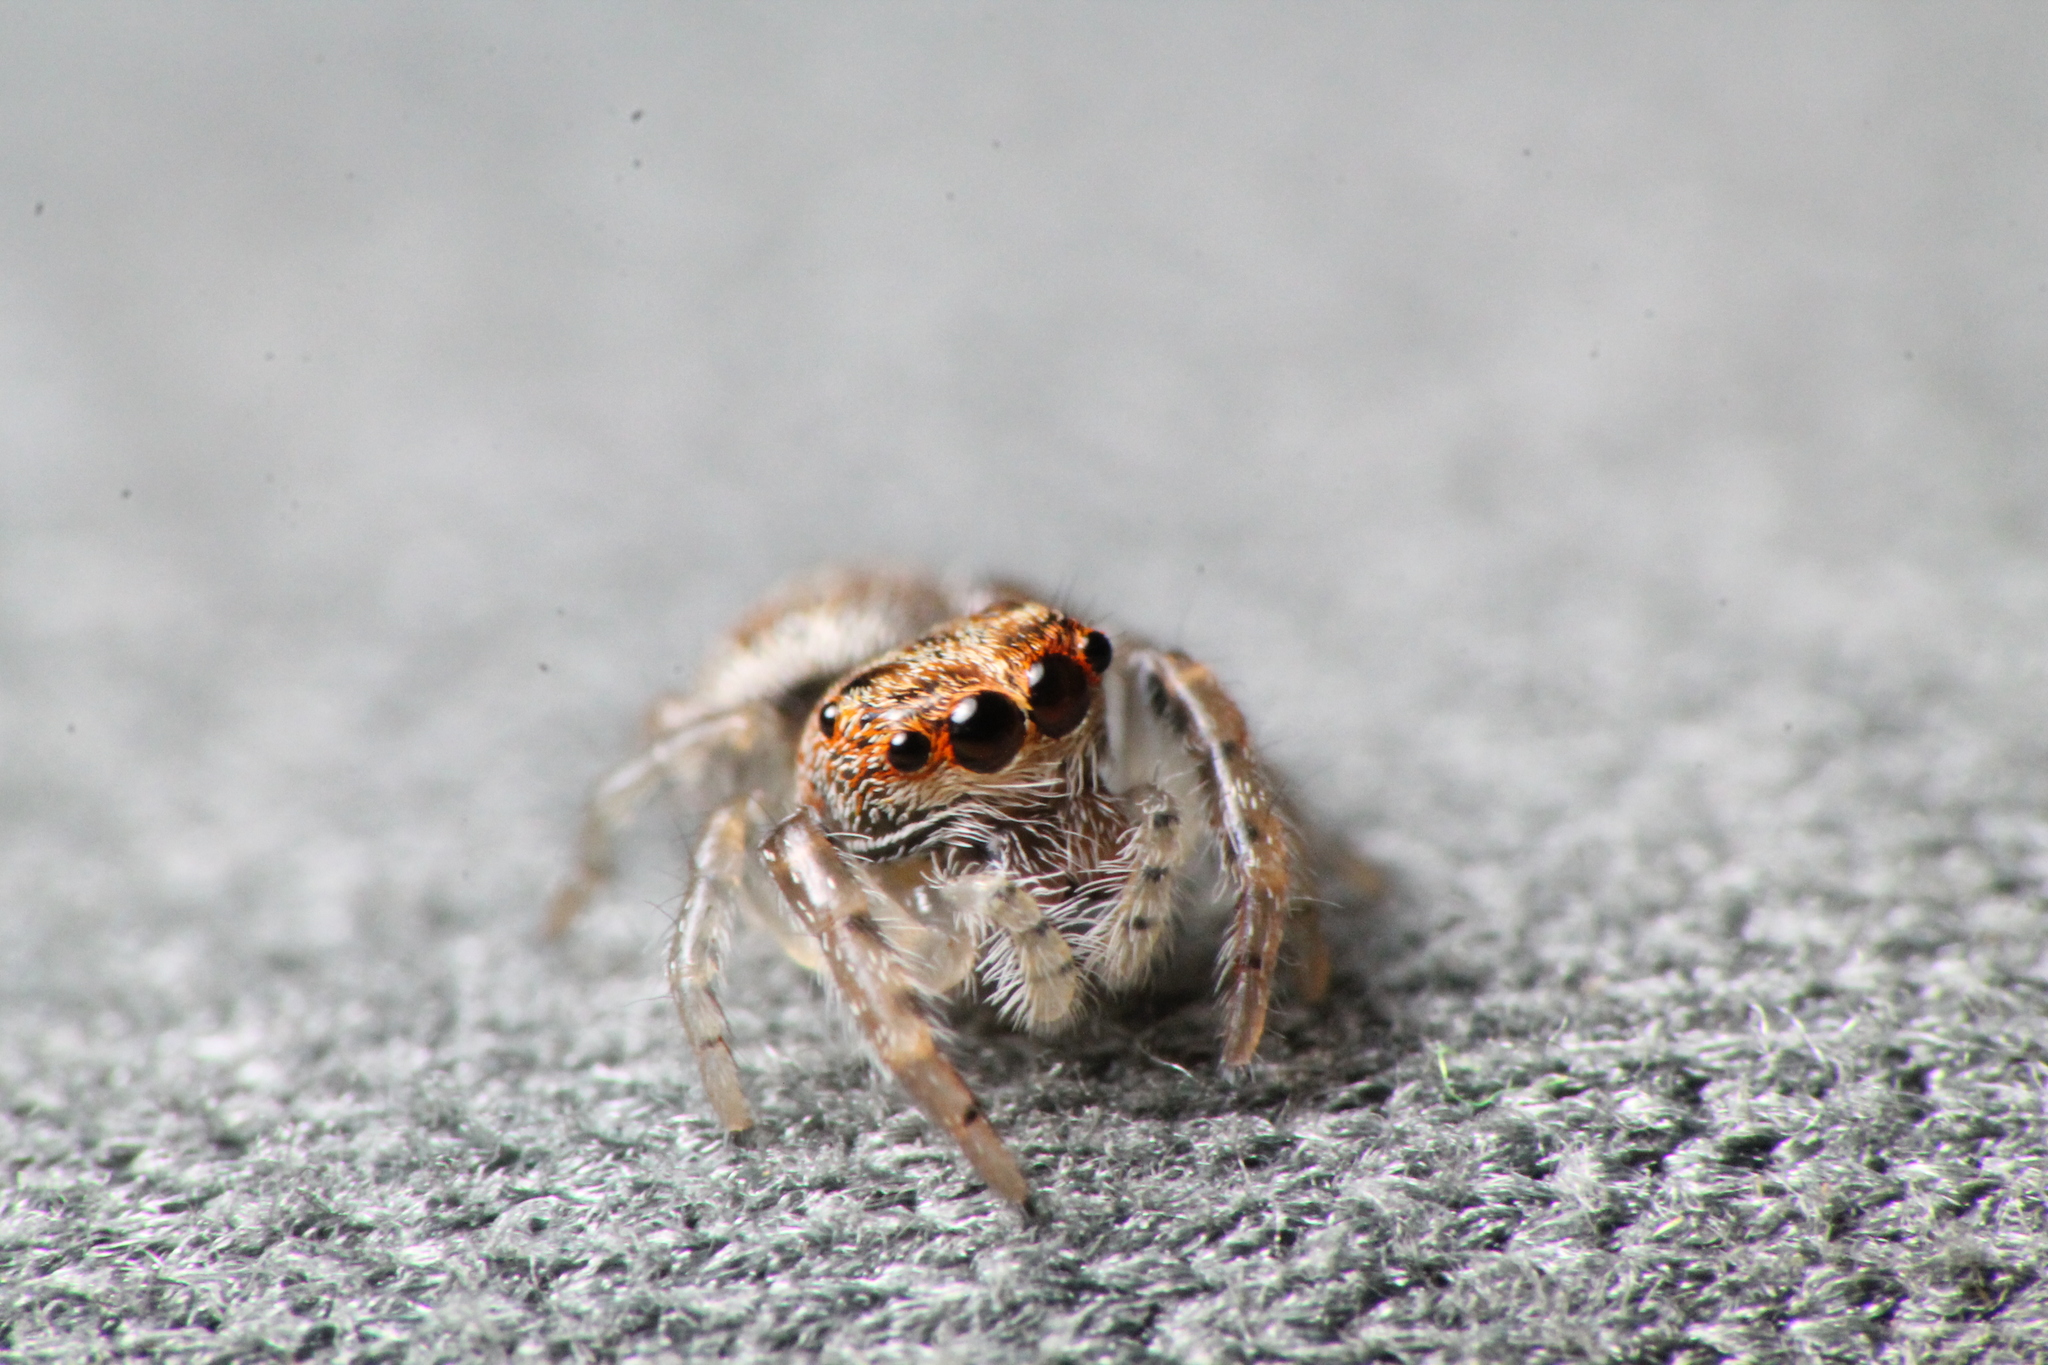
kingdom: Animalia
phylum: Arthropoda
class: Arachnida
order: Araneae
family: Salticidae
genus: Opisthoncus
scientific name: Opisthoncus polyphemus
